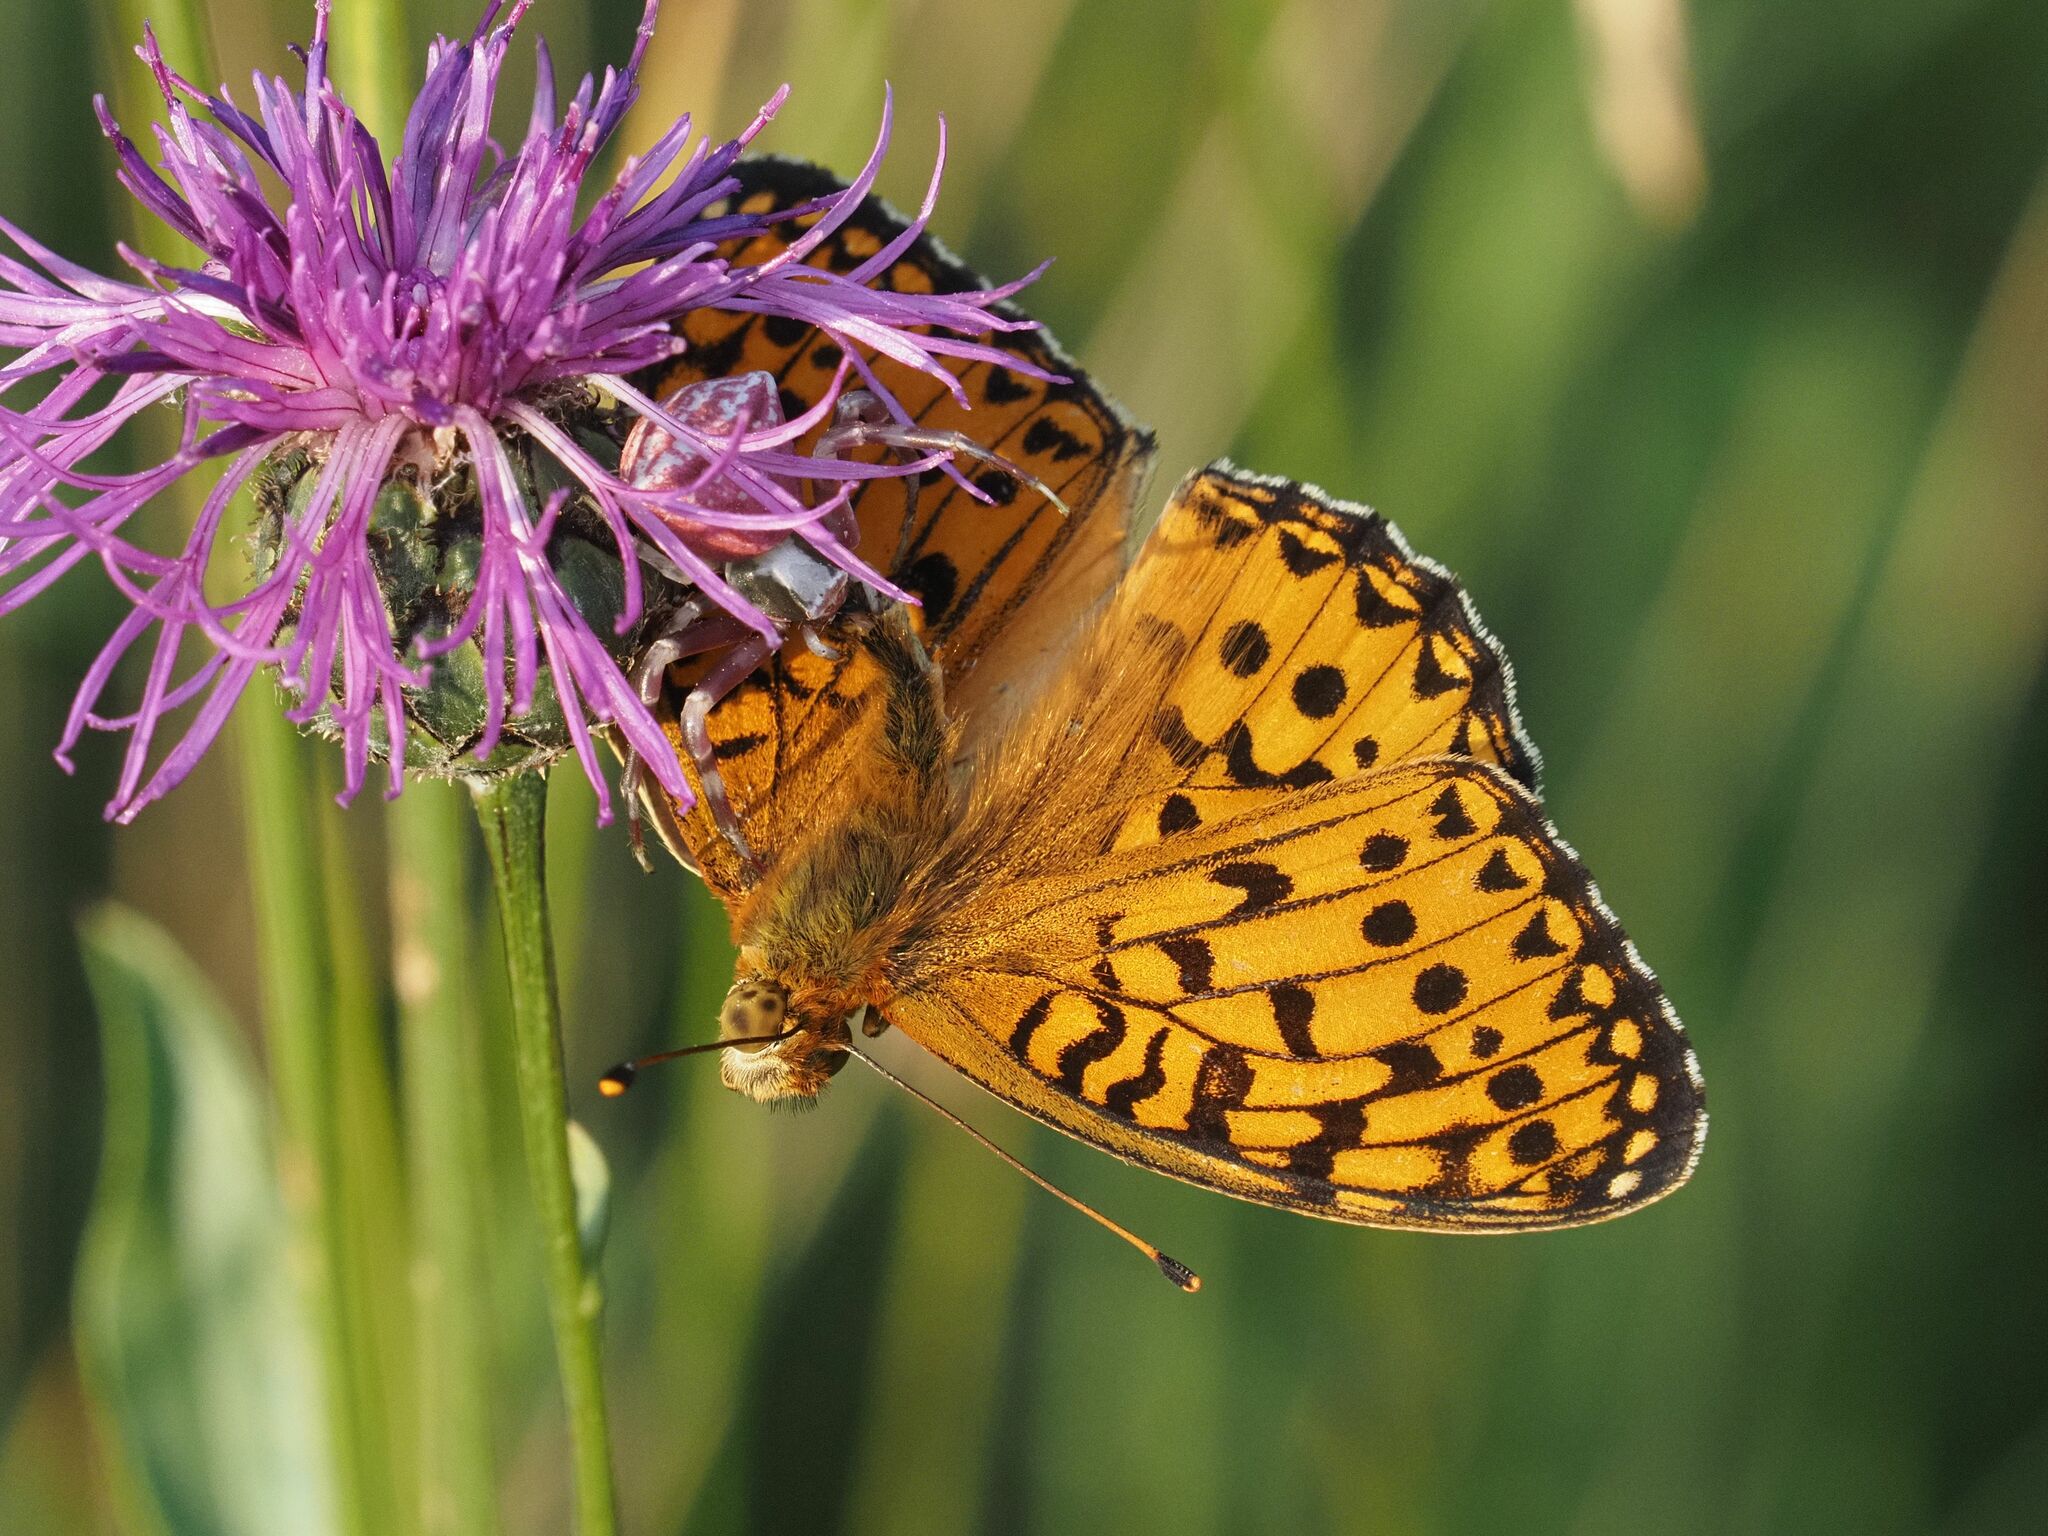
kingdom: Animalia
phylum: Arthropoda
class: Insecta
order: Lepidoptera
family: Nymphalidae
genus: Speyeria
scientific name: Speyeria aglaja
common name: Dark green fritillary
